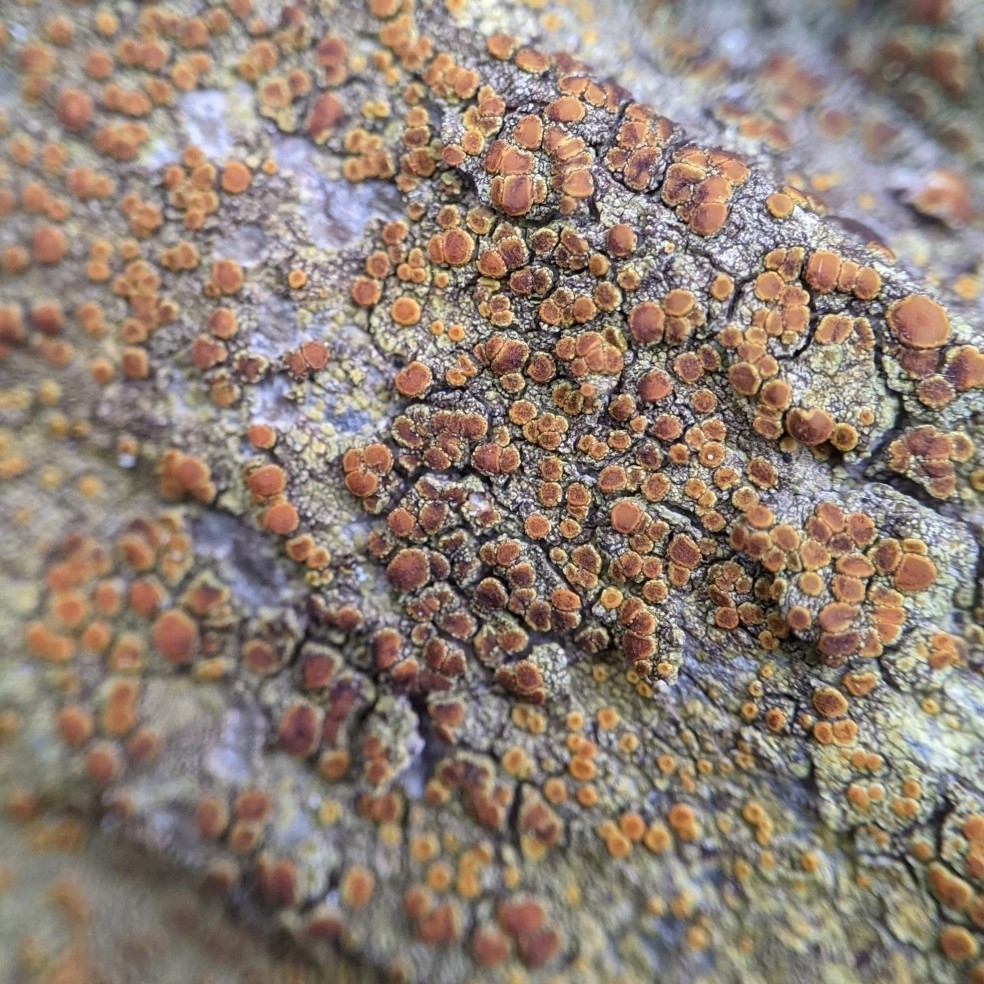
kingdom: Fungi
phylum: Ascomycota
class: Lecanoromycetes
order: Teloschistales
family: Teloschistaceae
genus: Gyalolechia
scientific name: Gyalolechia flavovirescens
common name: Sulphur firedot
